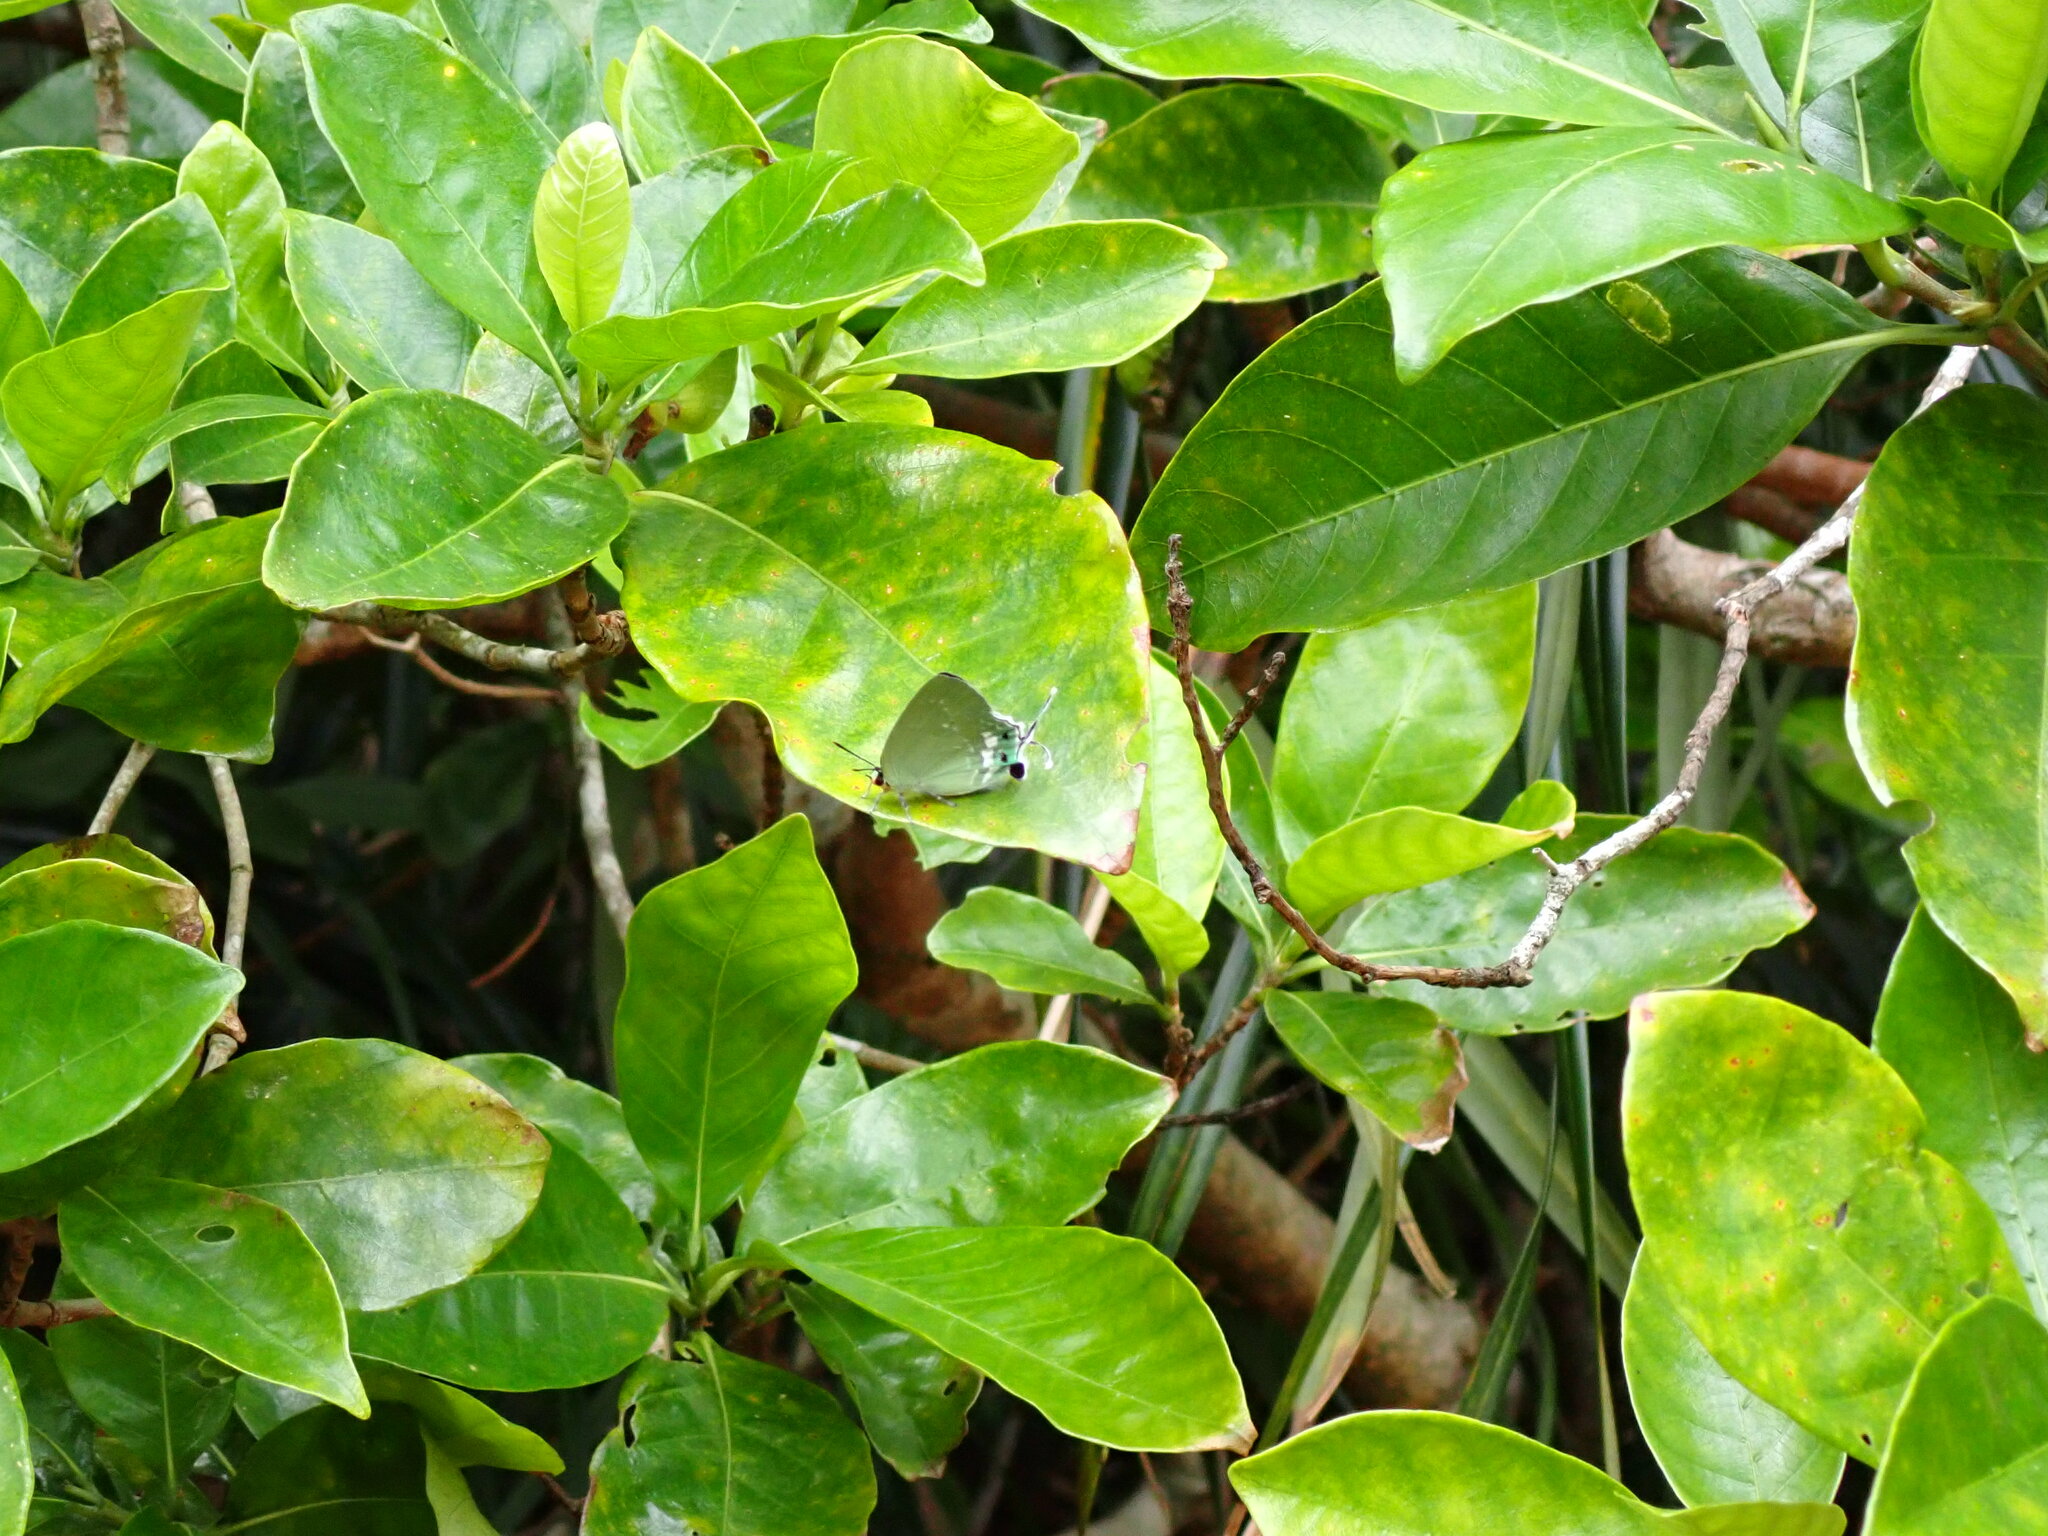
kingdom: Animalia
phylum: Arthropoda
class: Insecta
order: Lepidoptera
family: Lycaenidae
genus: Artipe
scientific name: Artipe eryx
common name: Green flash
